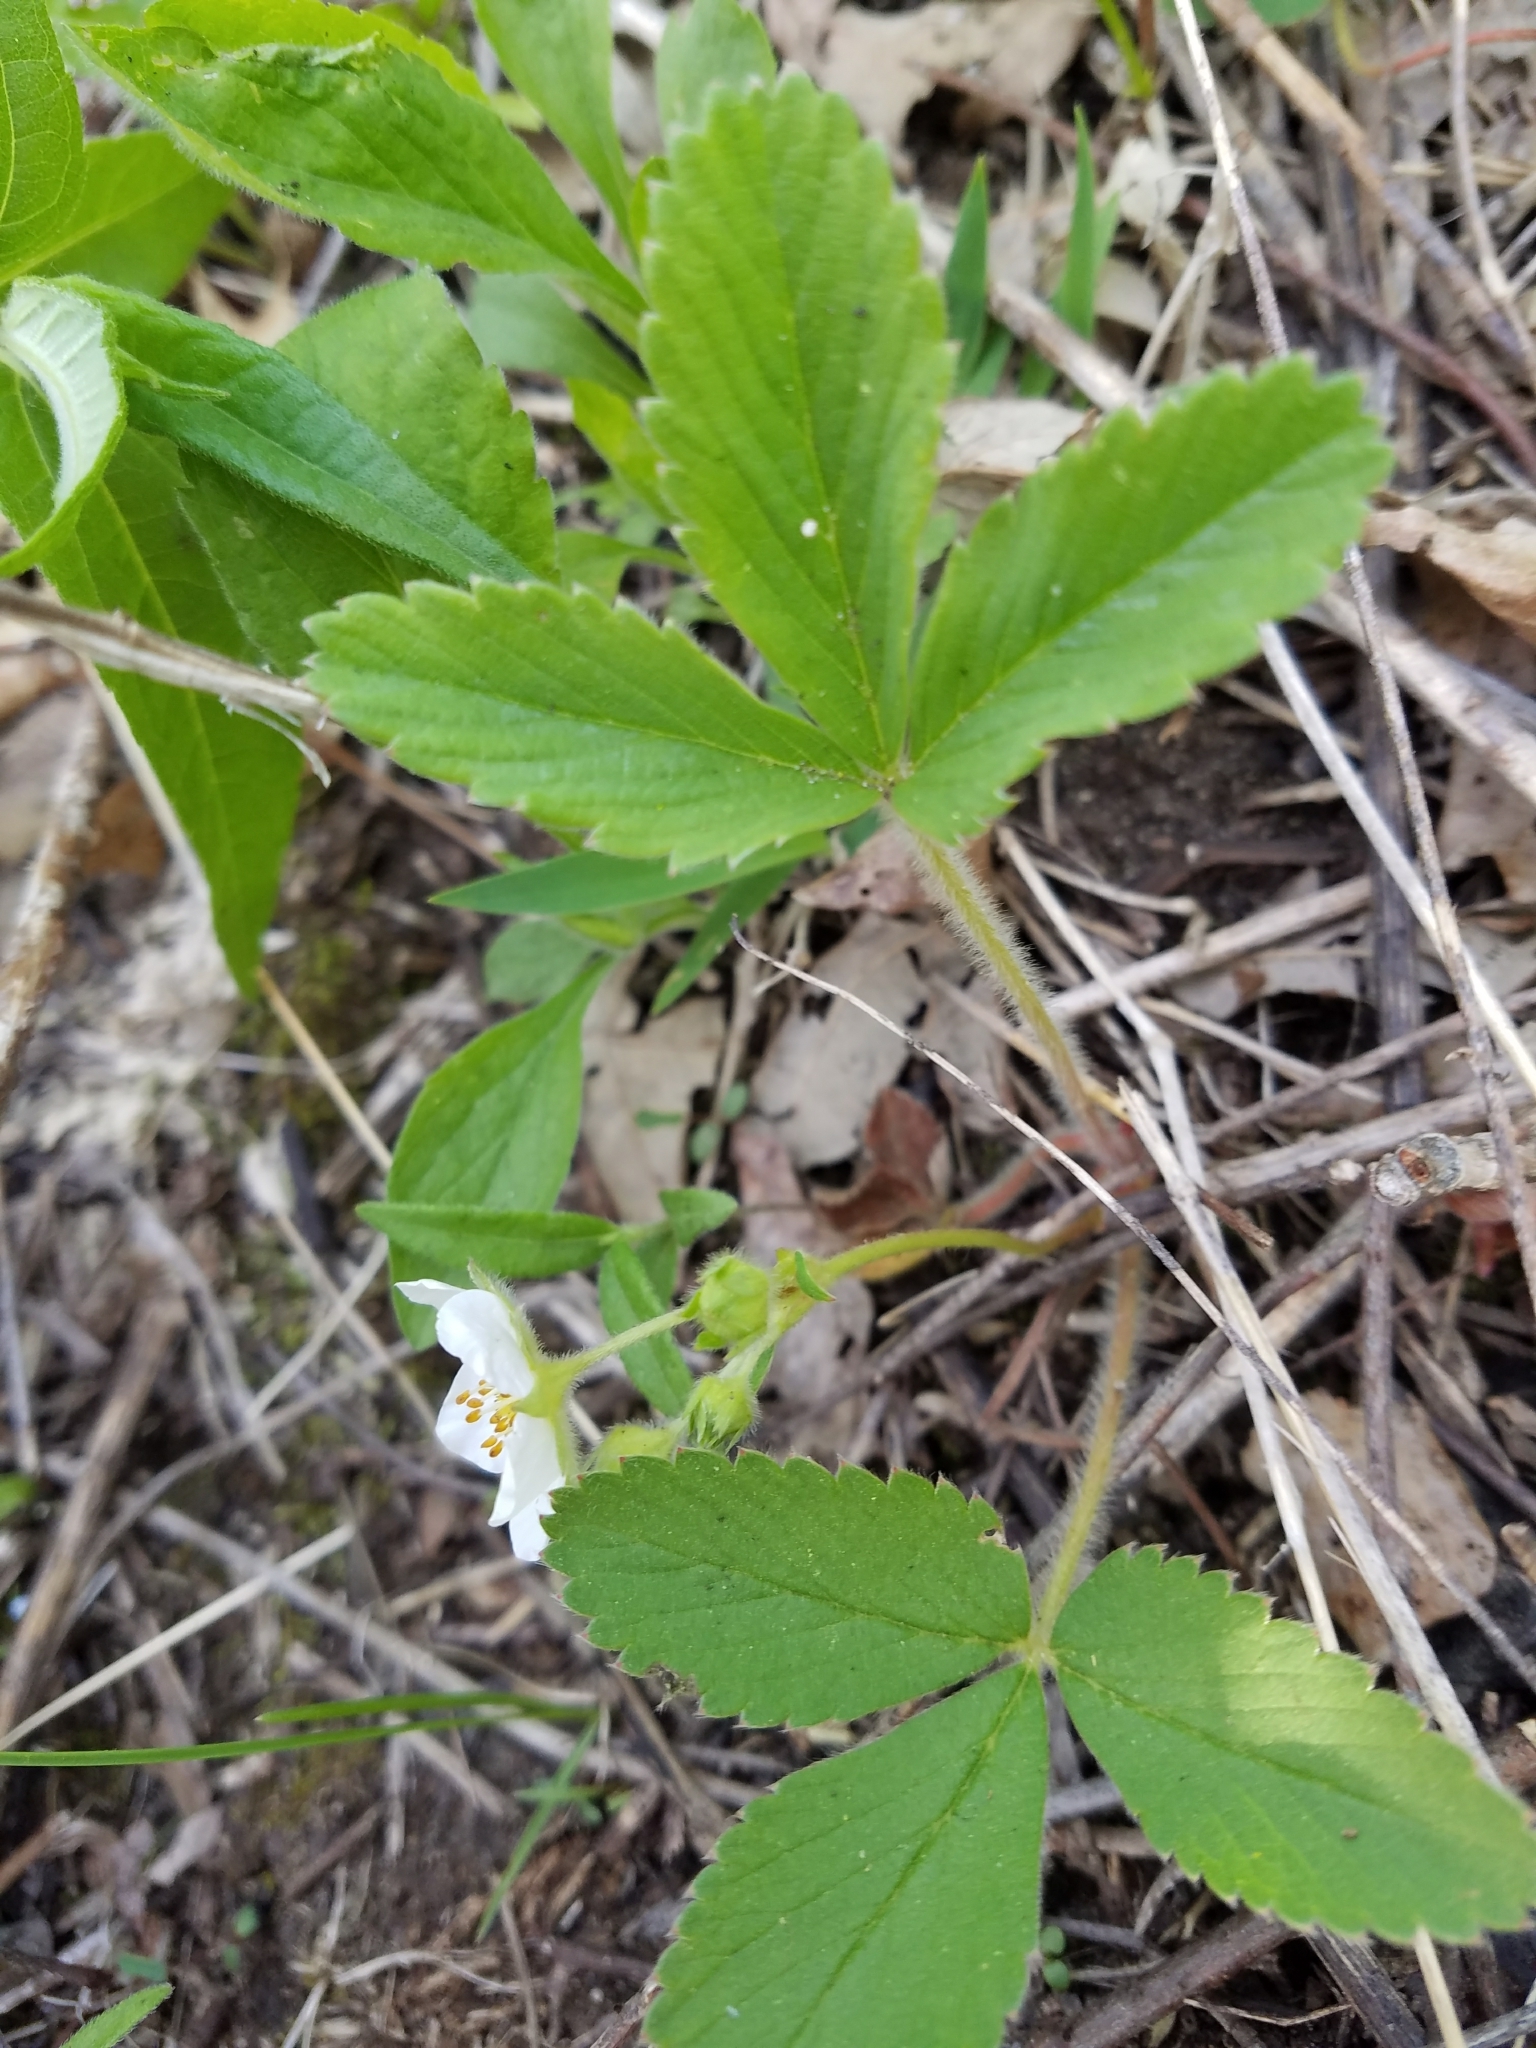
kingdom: Plantae
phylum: Tracheophyta
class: Magnoliopsida
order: Rosales
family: Rosaceae
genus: Fragaria
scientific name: Fragaria virginiana
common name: Thickleaved wild strawberry
